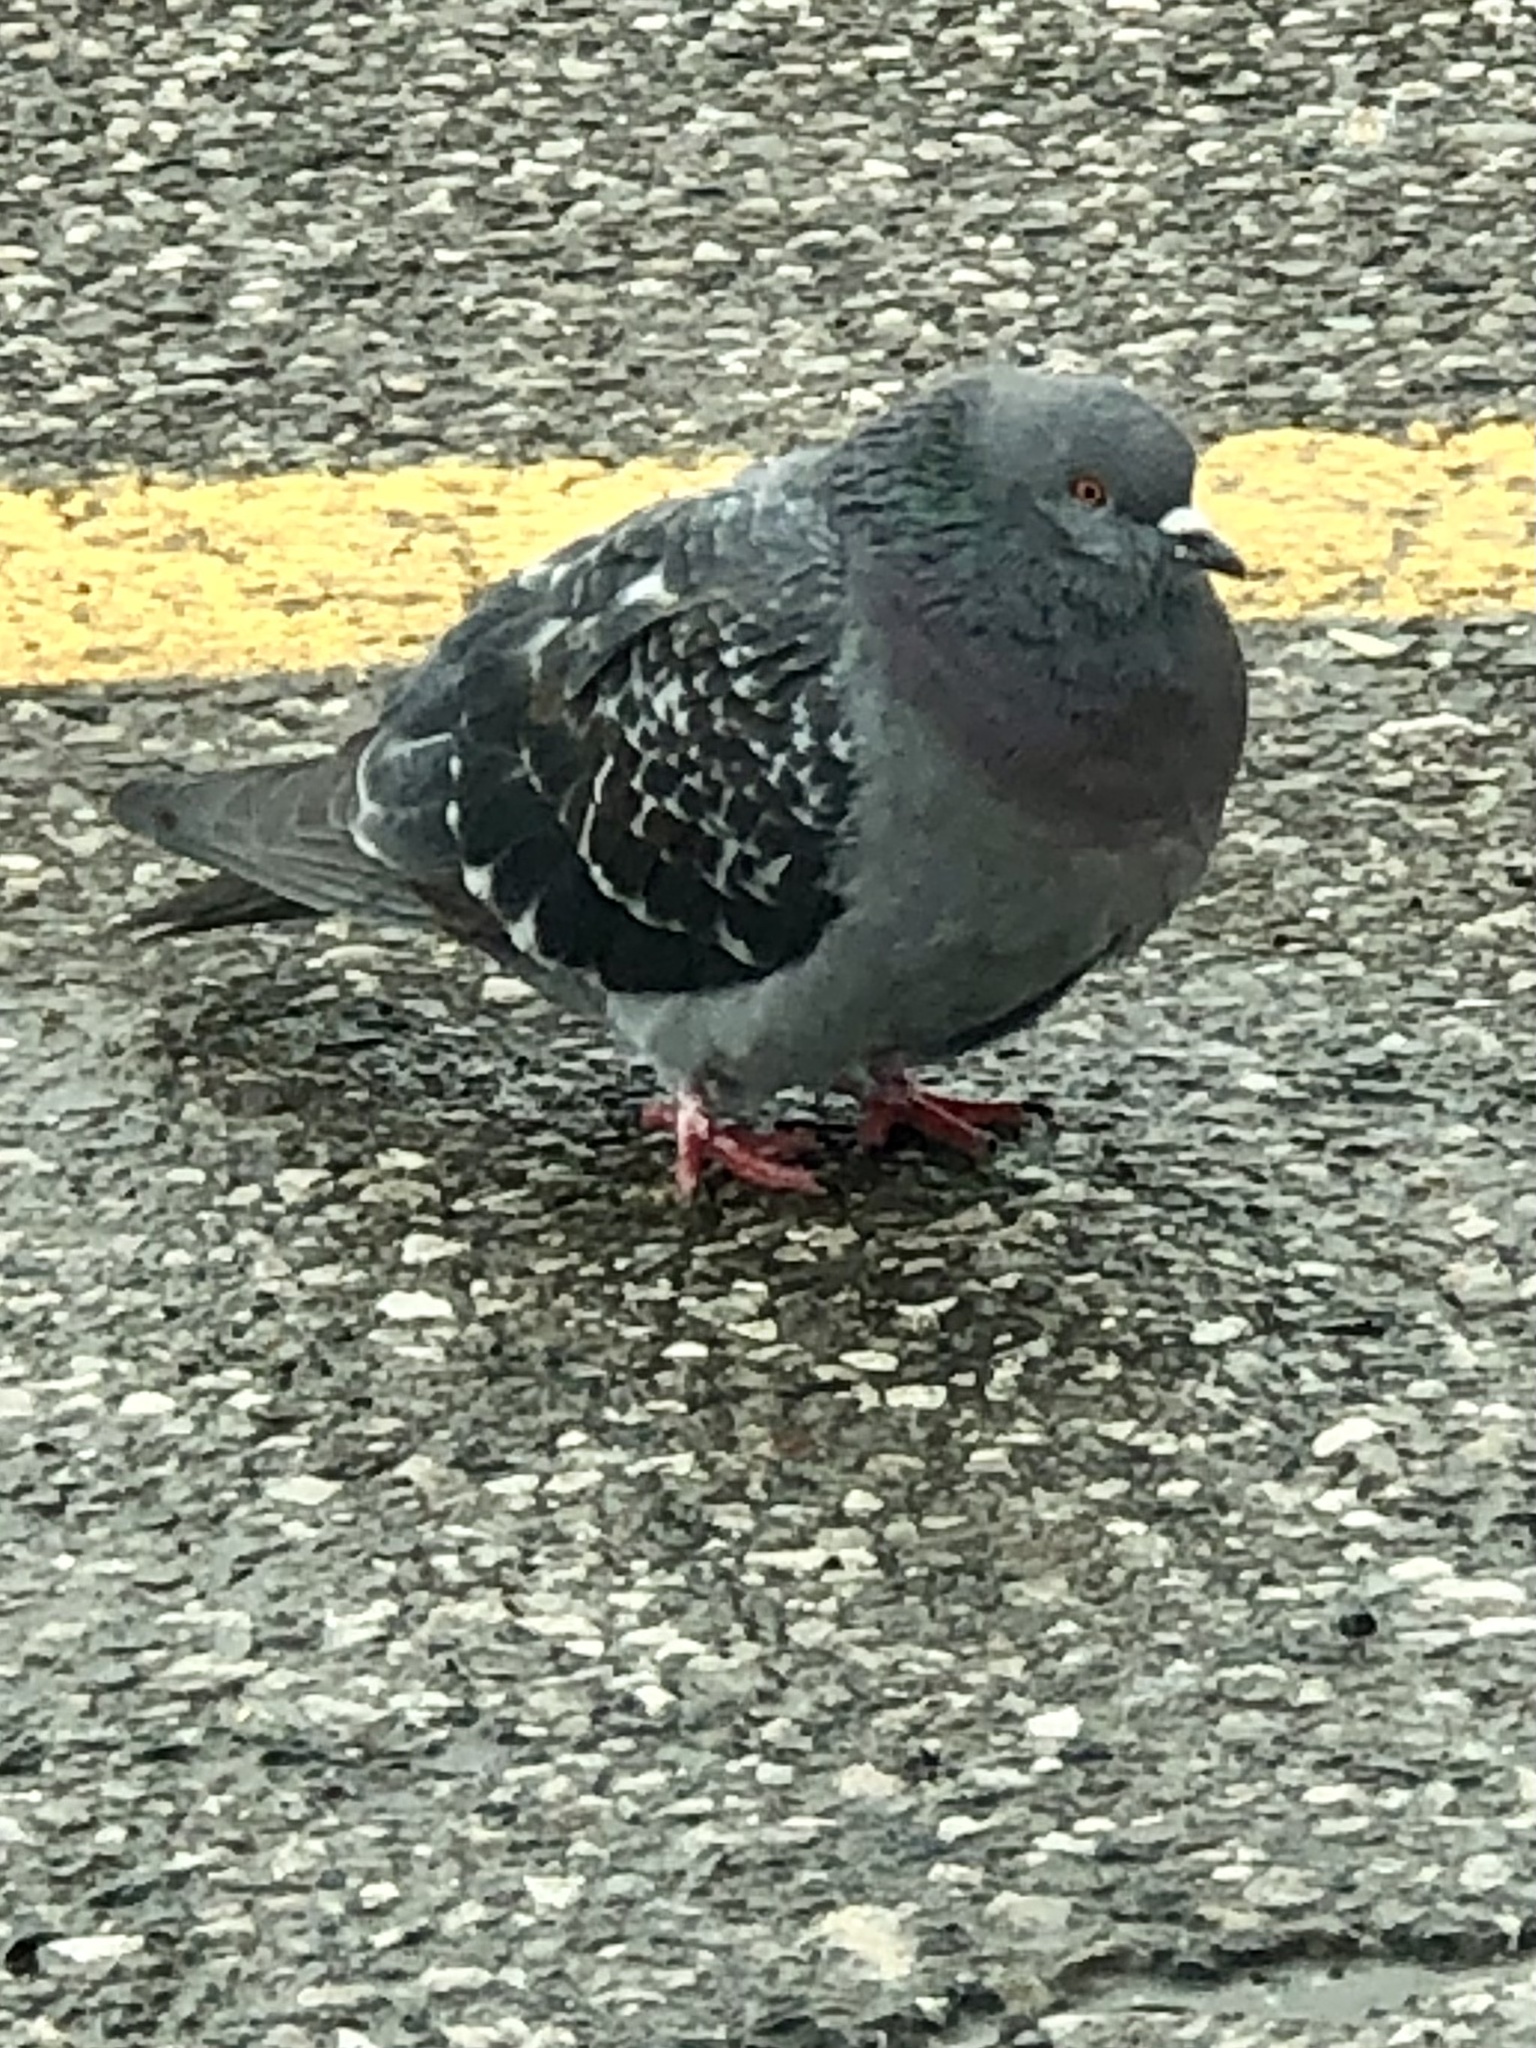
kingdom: Animalia
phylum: Chordata
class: Aves
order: Columbiformes
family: Columbidae
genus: Columba
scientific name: Columba livia
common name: Rock pigeon
